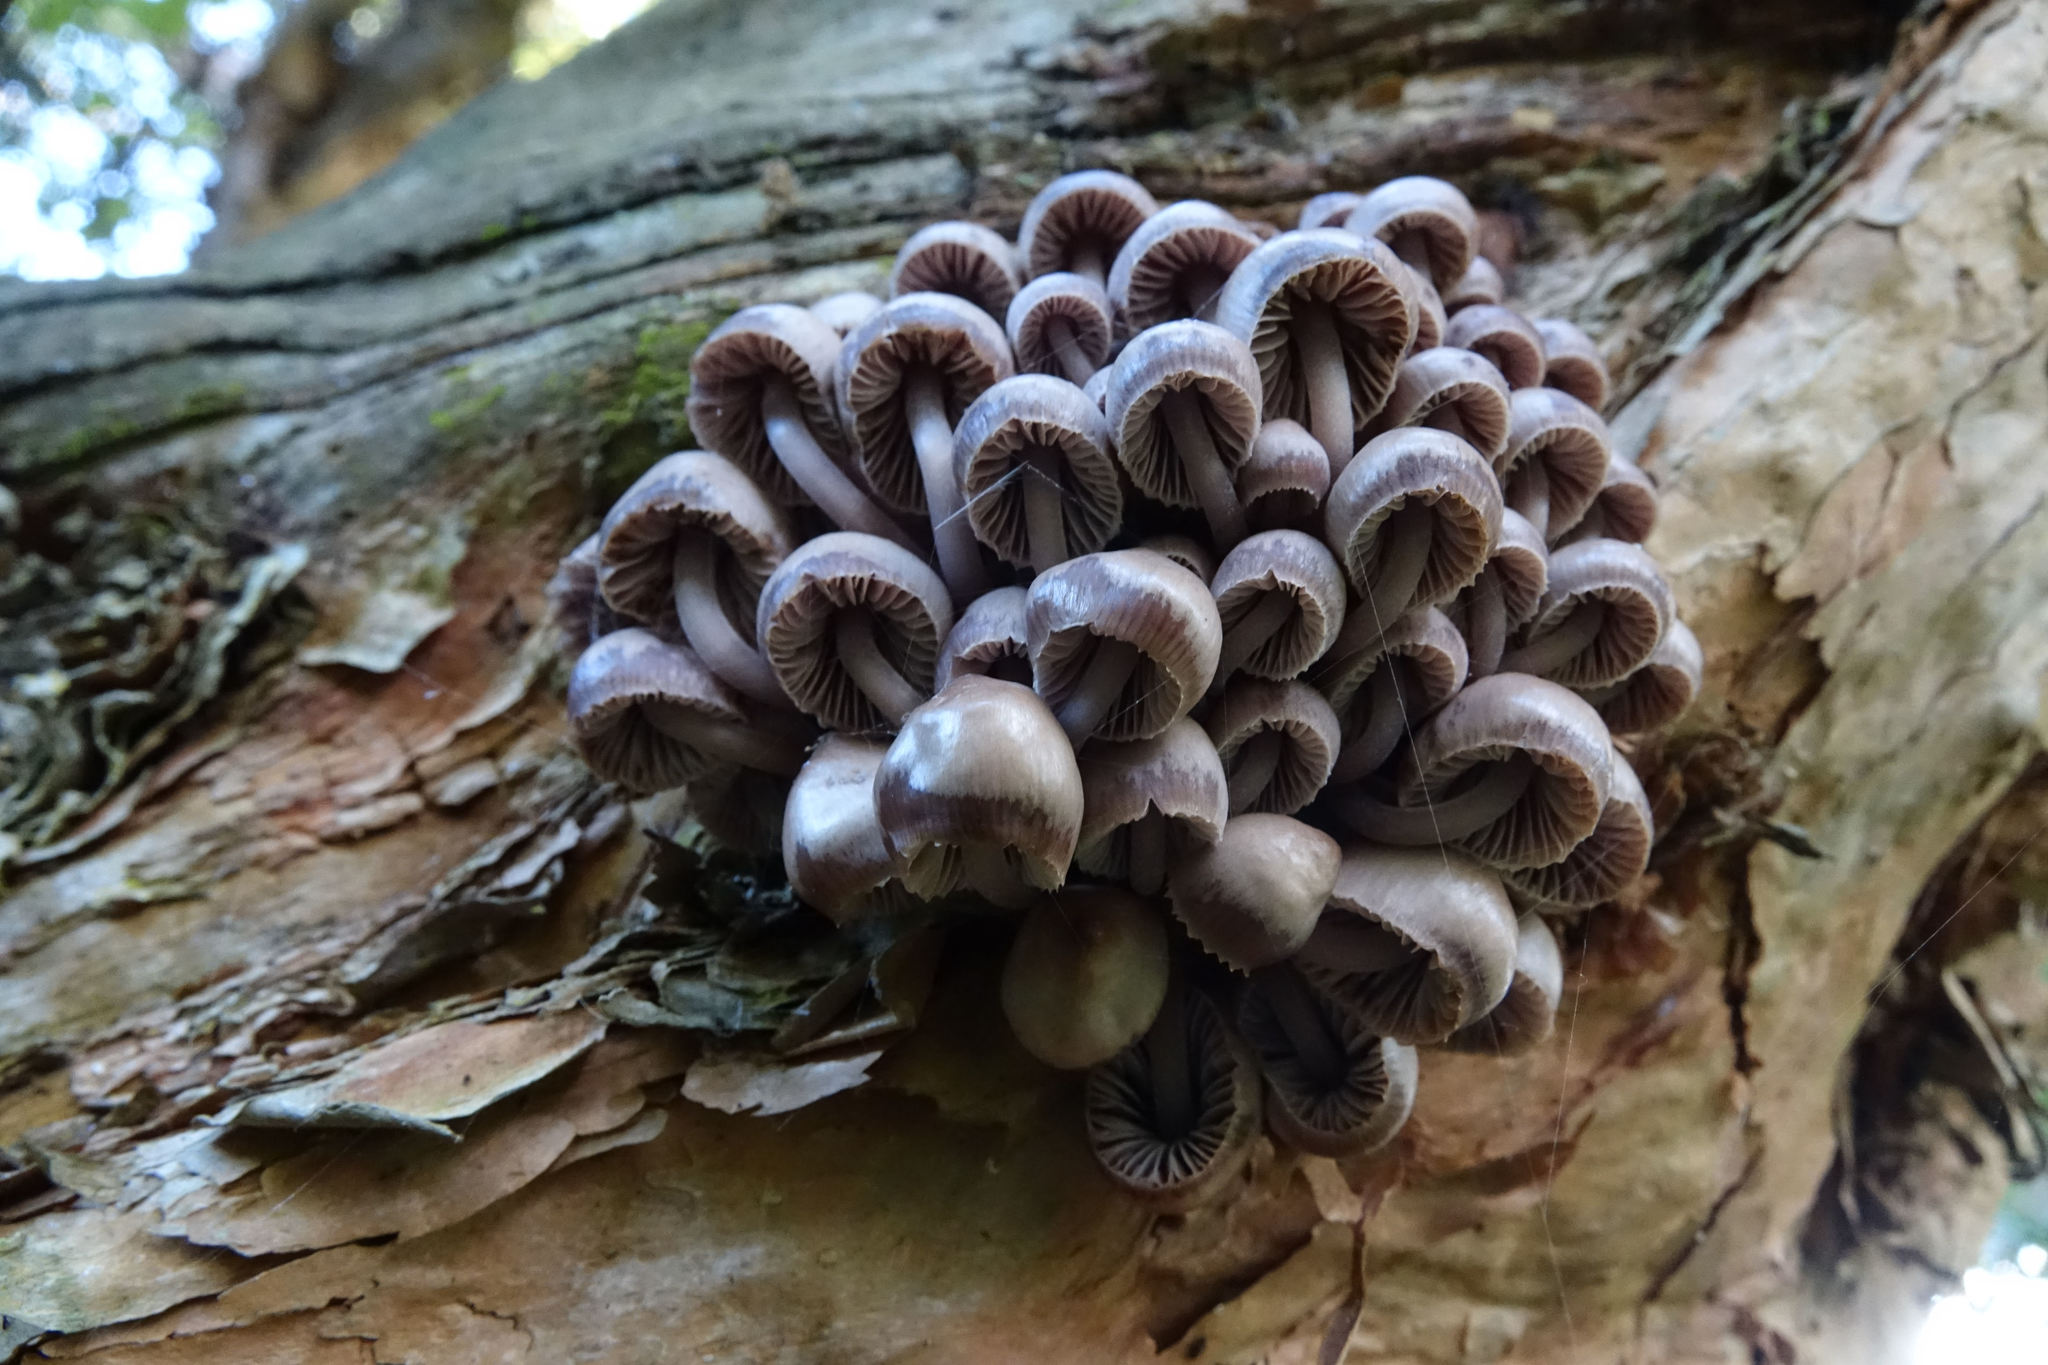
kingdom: Fungi
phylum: Basidiomycota
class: Agaricomycetes
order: Agaricales
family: Mycenaceae
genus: Mycena
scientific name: Mycena clarkeana
